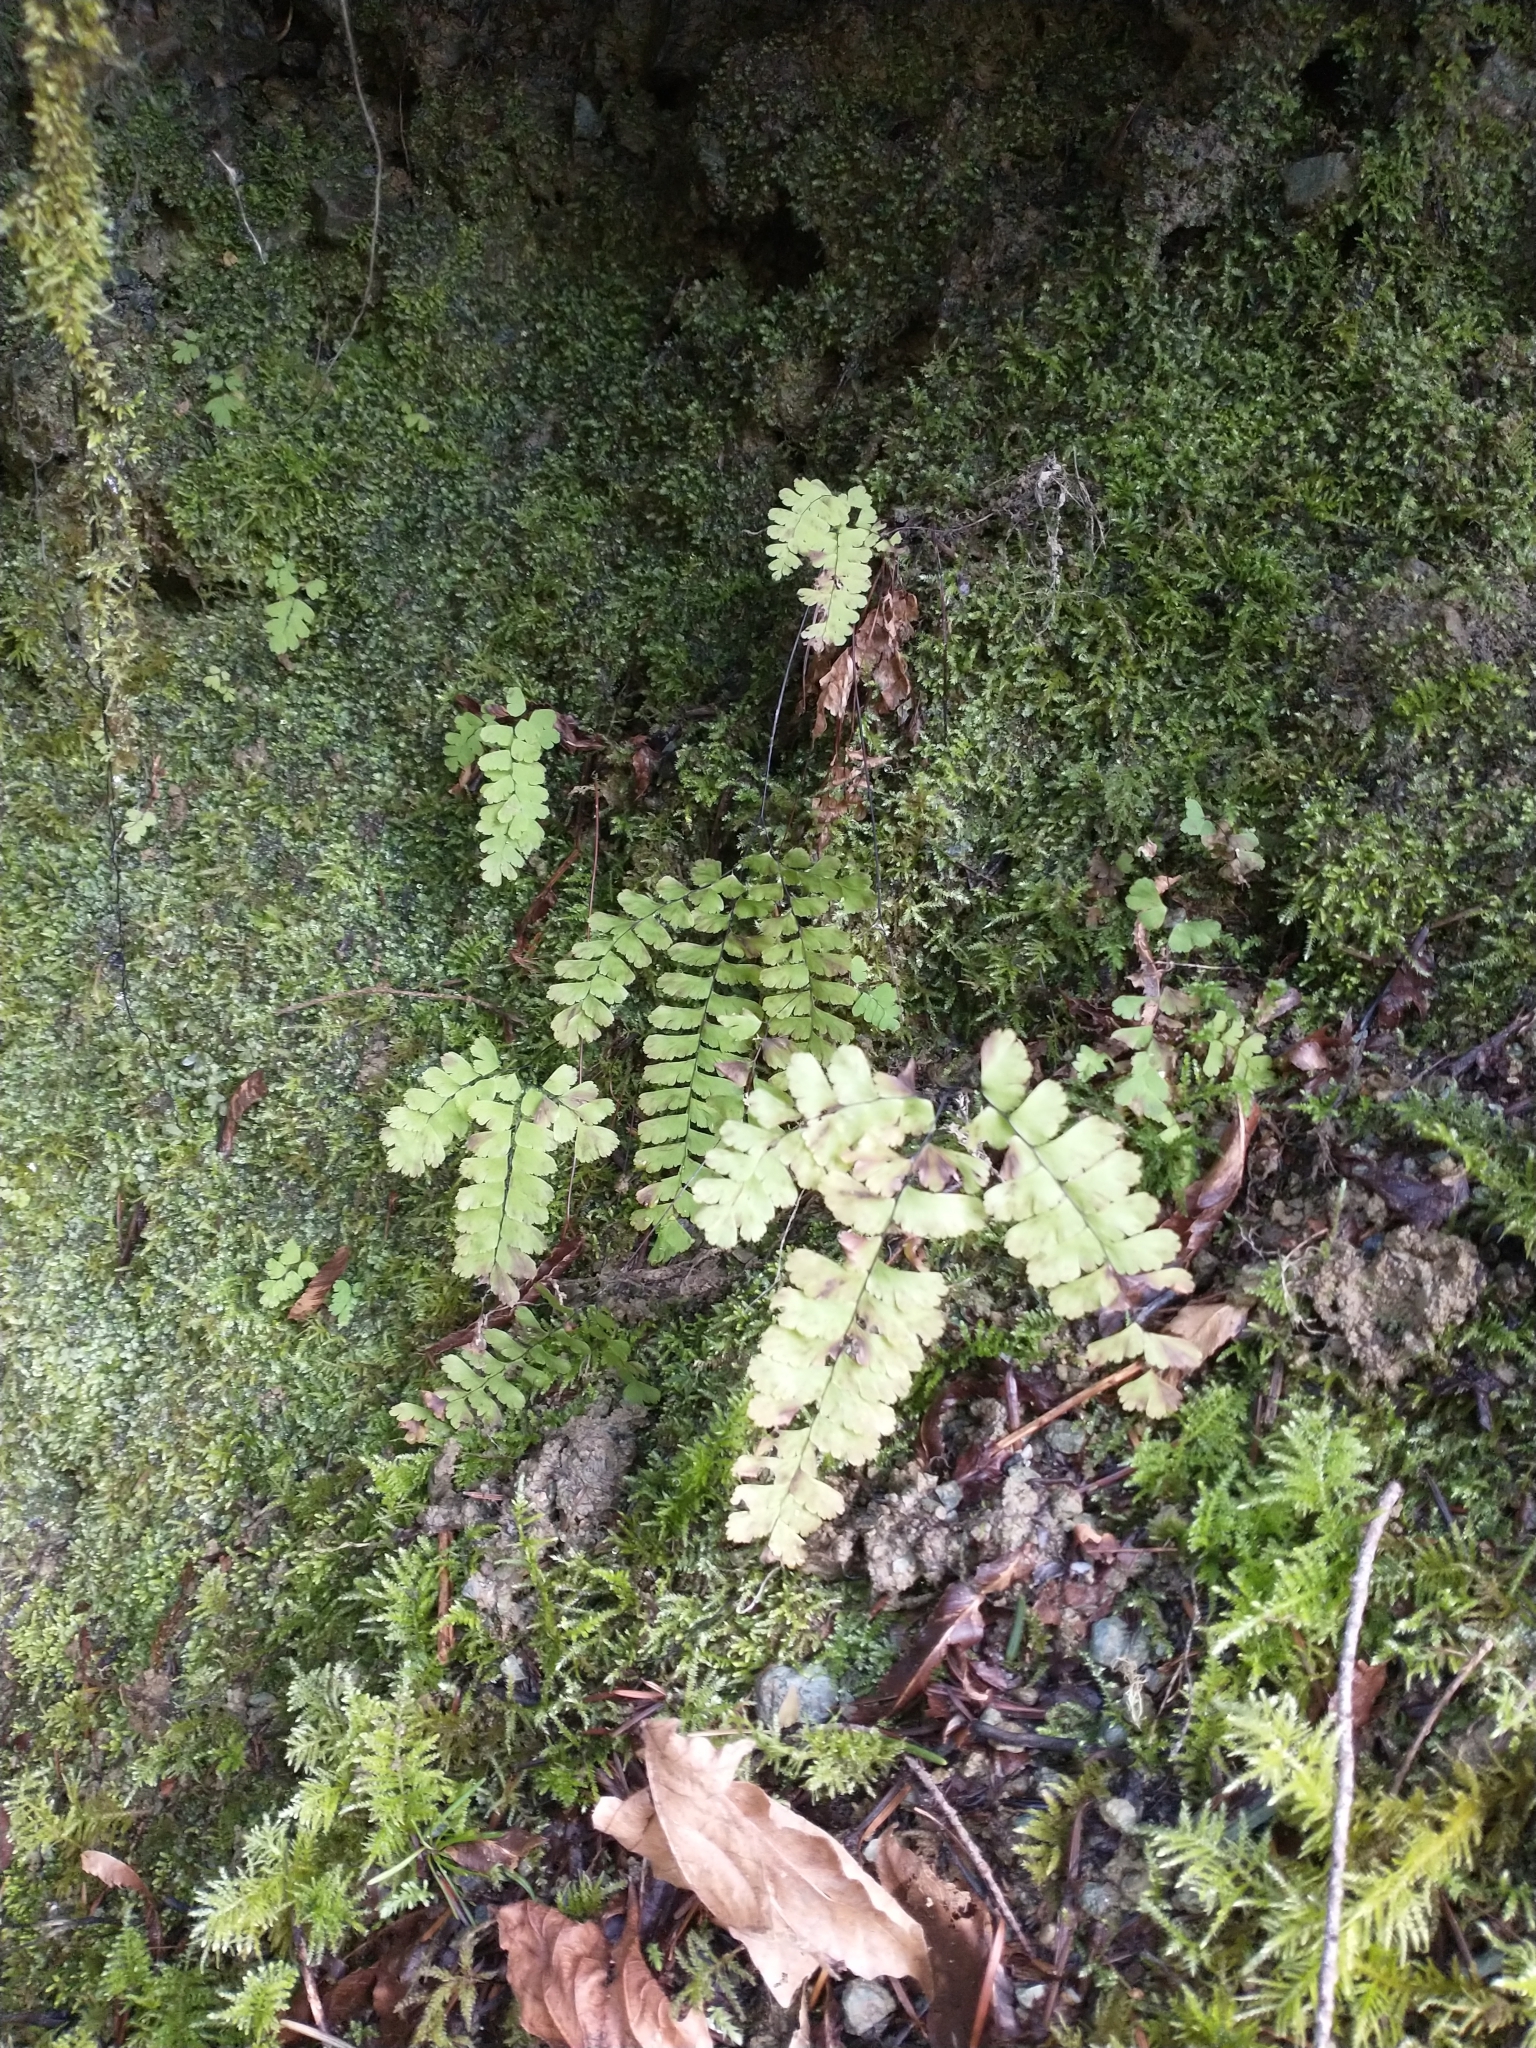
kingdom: Plantae
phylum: Tracheophyta
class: Polypodiopsida
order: Polypodiales
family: Pteridaceae
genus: Adiantum
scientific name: Adiantum aleuticum
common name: Aleutian maidenhair fern
